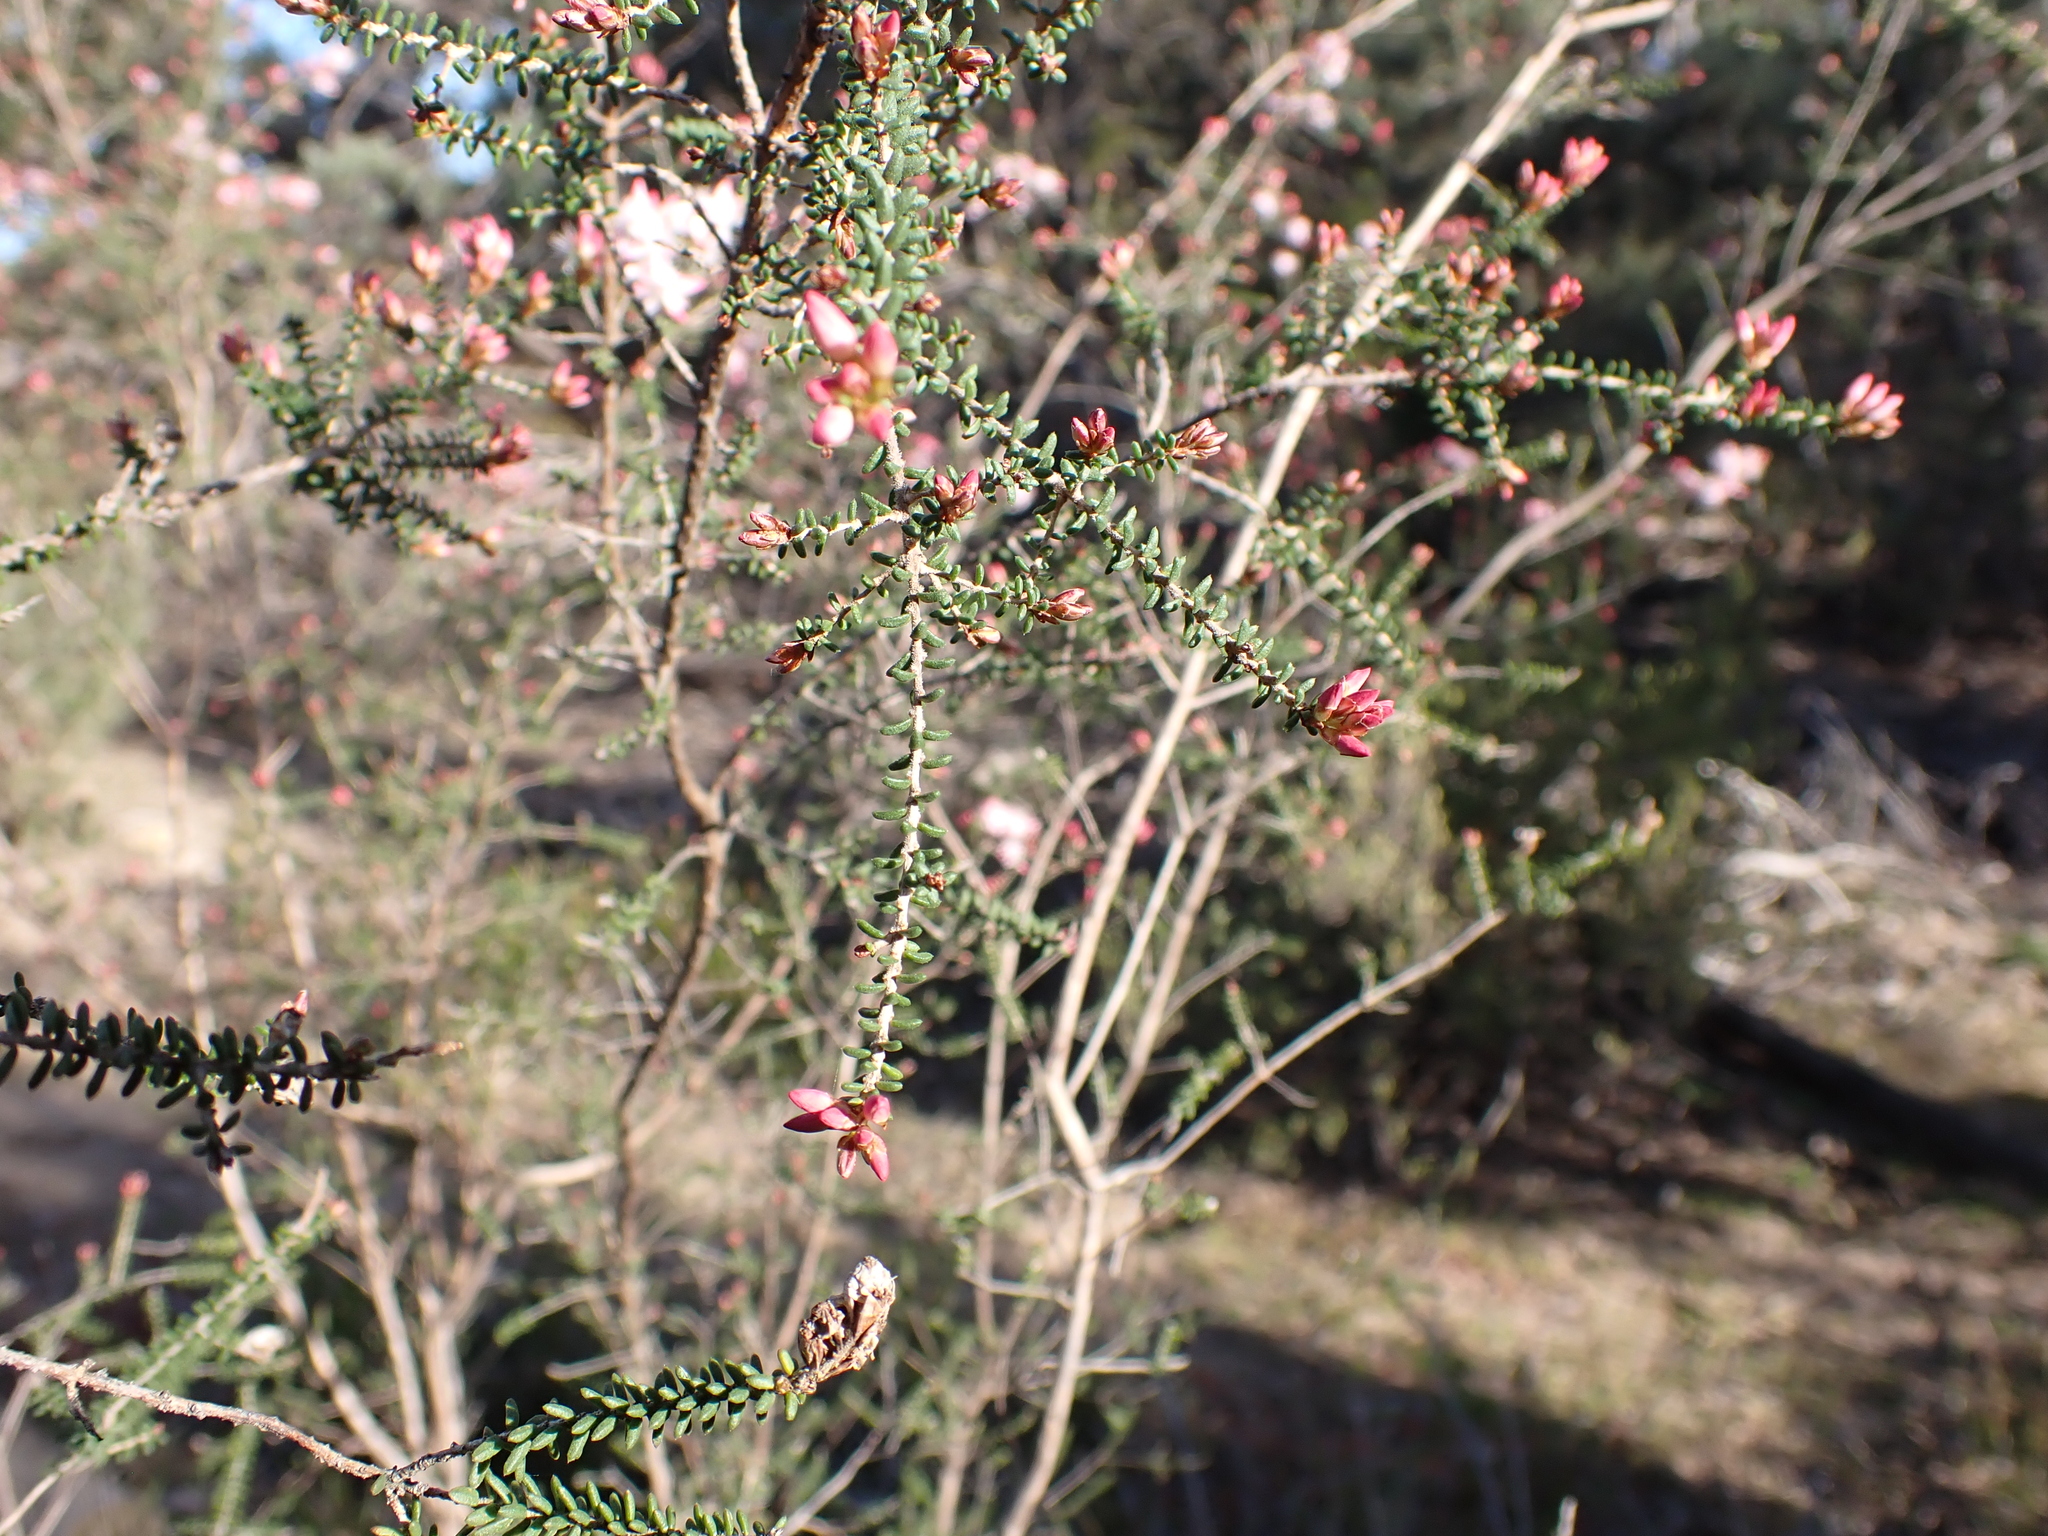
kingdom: Plantae
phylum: Tracheophyta
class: Magnoliopsida
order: Myrtales
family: Myrtaceae
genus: Calytrix
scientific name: Calytrix alpestris
